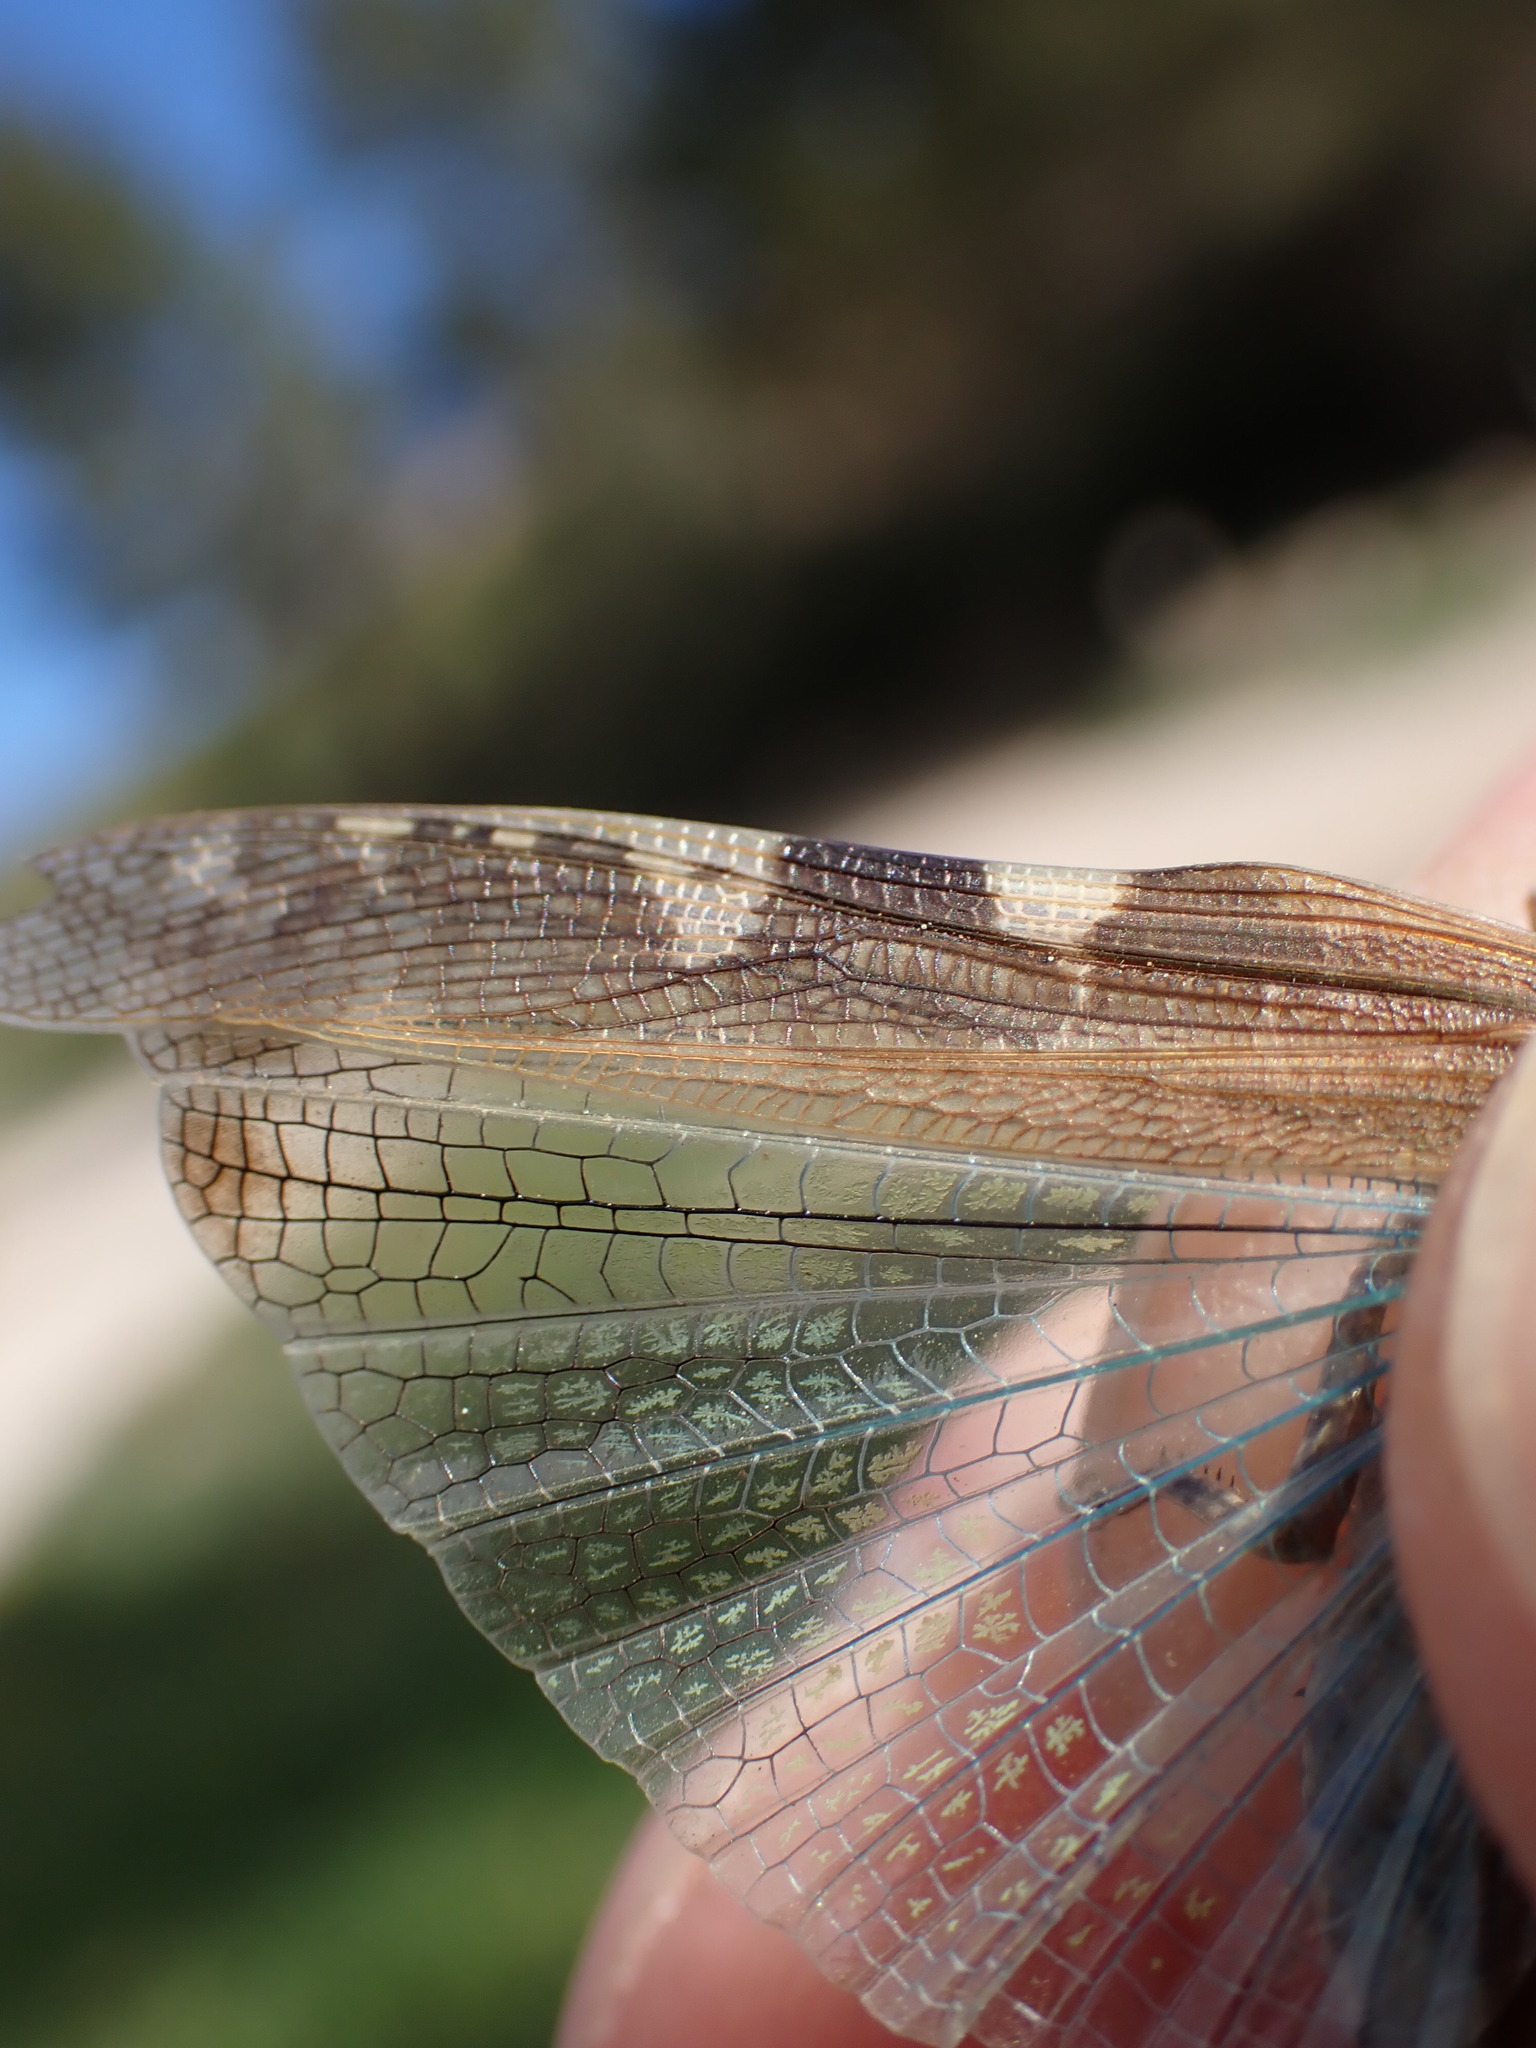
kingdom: Animalia
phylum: Arthropoda
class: Insecta
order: Orthoptera
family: Acrididae
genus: Aiolopus
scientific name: Aiolopus strepens
